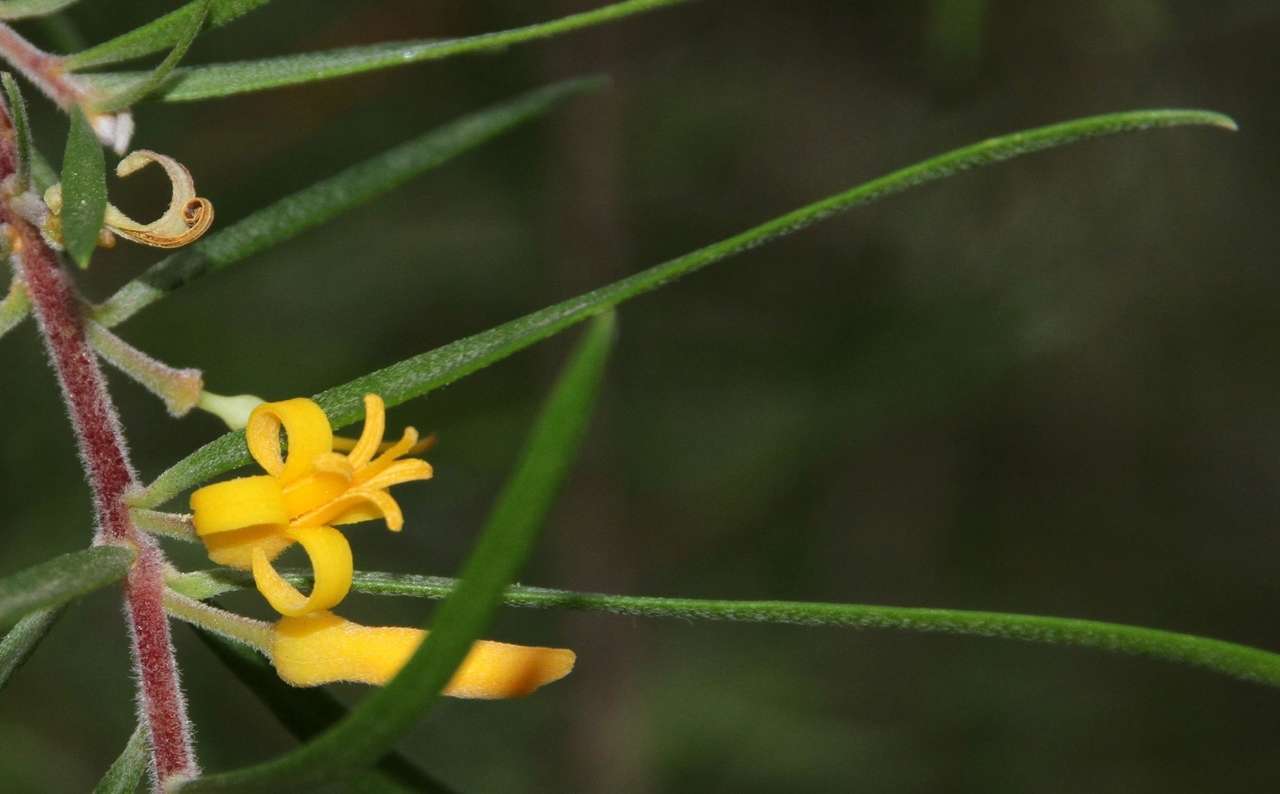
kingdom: Plantae
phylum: Tracheophyta
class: Magnoliopsida
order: Proteales
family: Proteaceae
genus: Persoonia
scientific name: Persoonia linearis
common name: Narrow-leaf geebung
